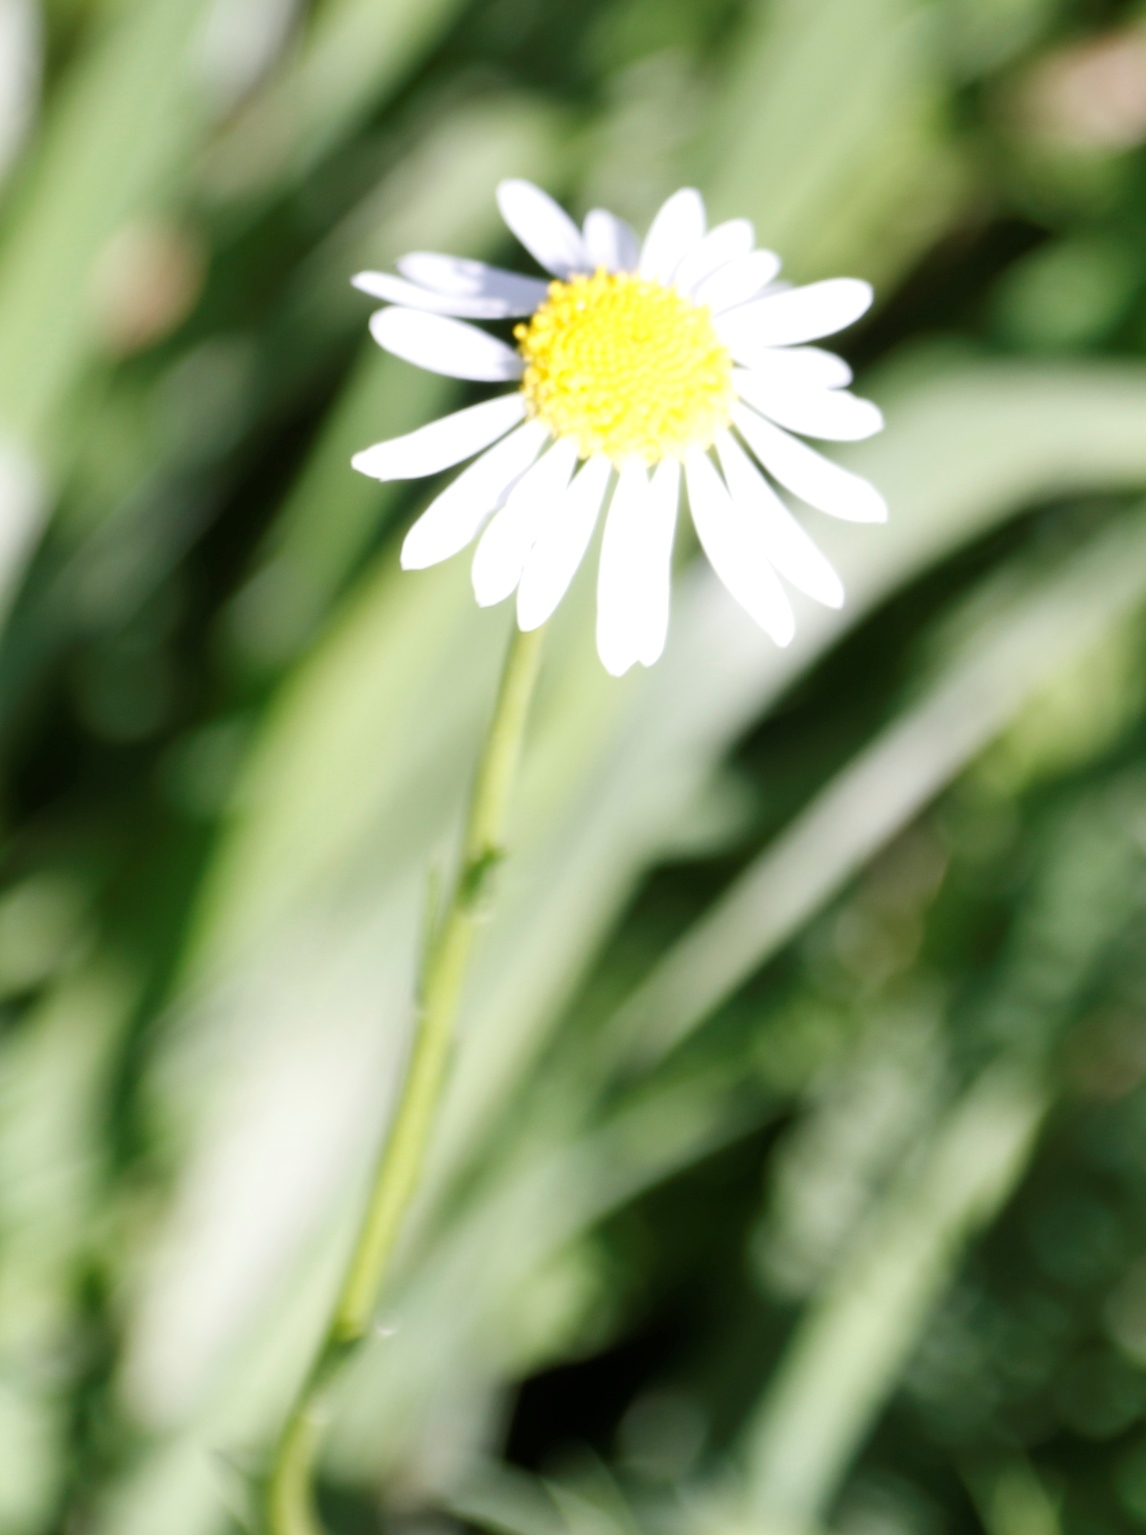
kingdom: Plantae
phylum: Tracheophyta
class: Magnoliopsida
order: Asterales
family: Asteraceae
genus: Lasiospermum
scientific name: Lasiospermum bipinnatum
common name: Cocoonhead
